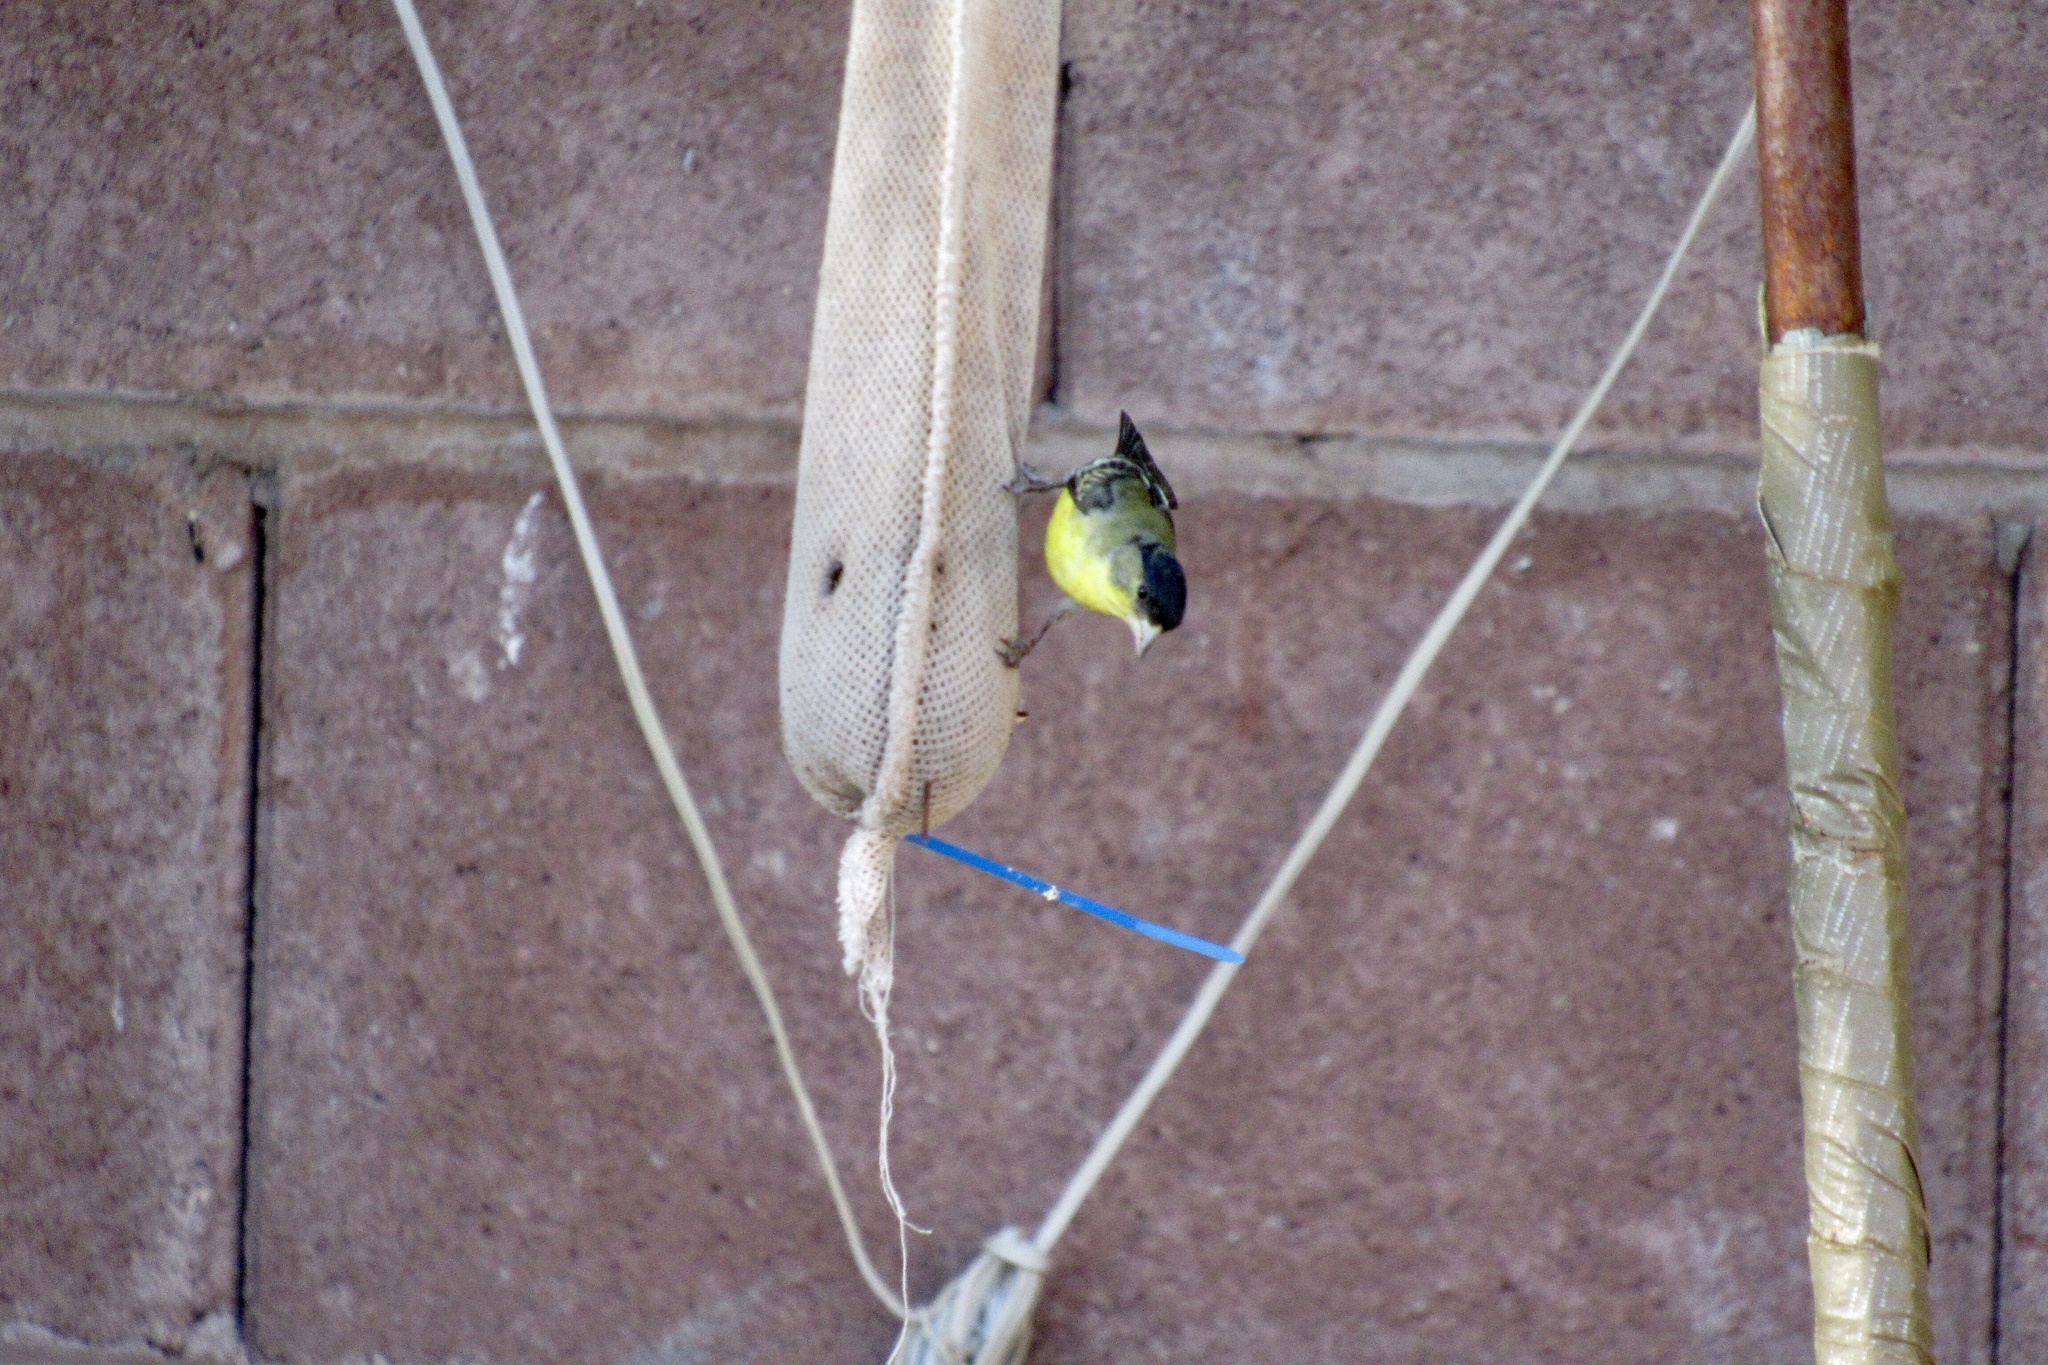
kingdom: Animalia
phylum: Chordata
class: Aves
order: Passeriformes
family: Fringillidae
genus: Spinus
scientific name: Spinus psaltria
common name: Lesser goldfinch
